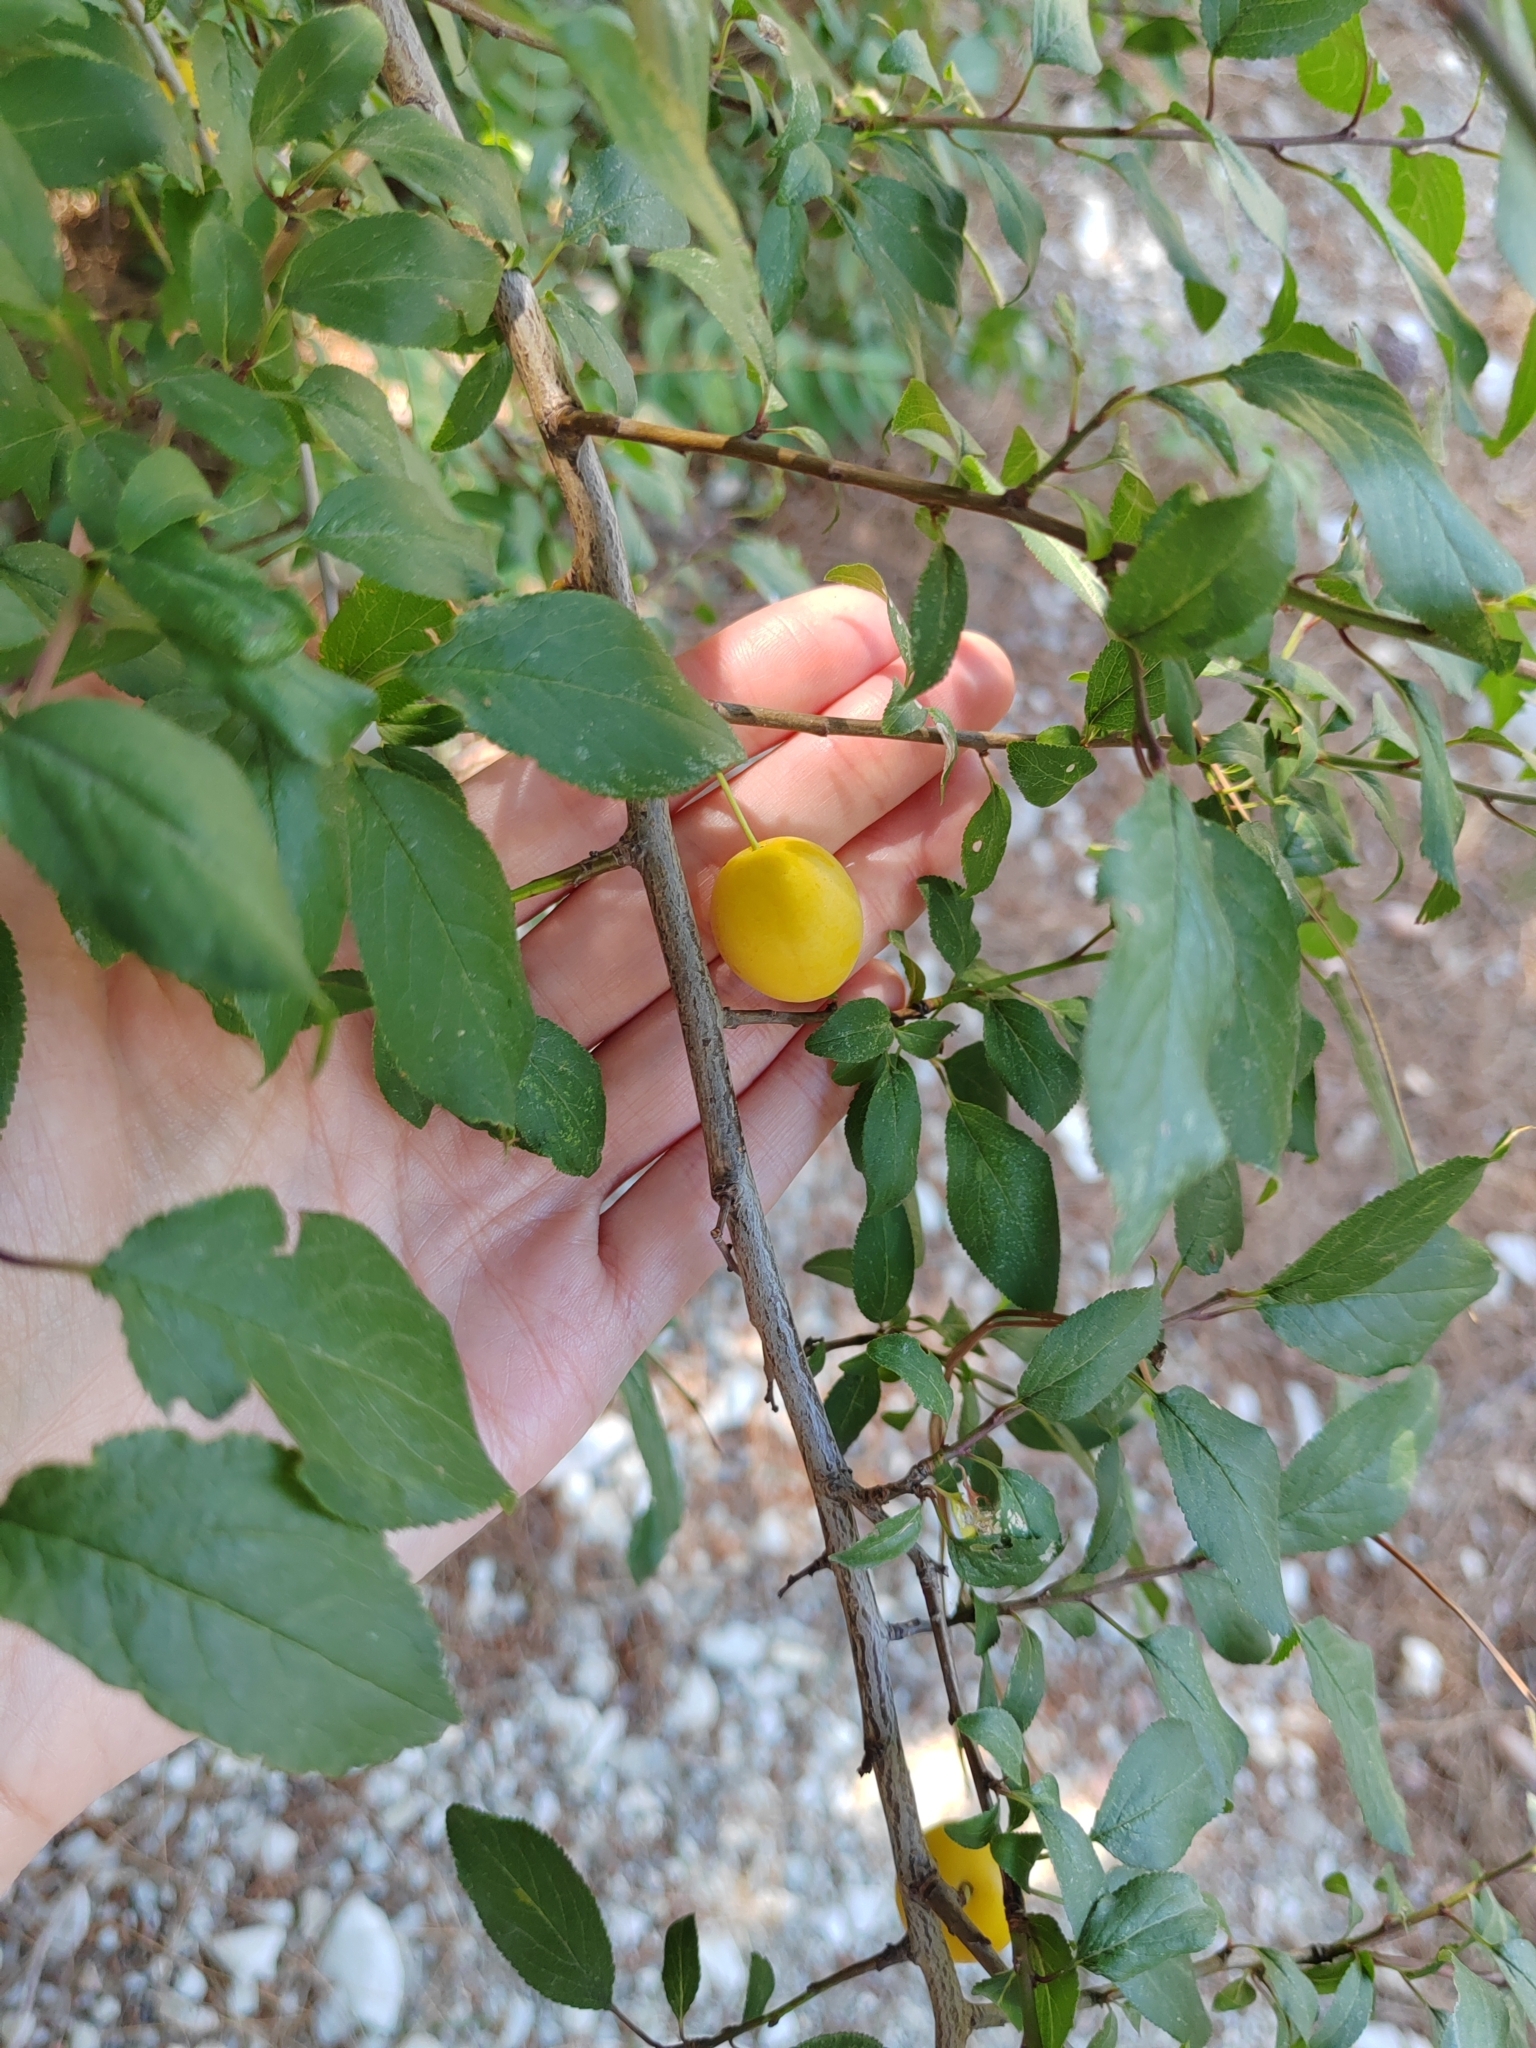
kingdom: Plantae
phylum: Tracheophyta
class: Magnoliopsida
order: Rosales
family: Rosaceae
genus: Prunus
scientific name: Prunus cerasifera
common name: Cherry plum
